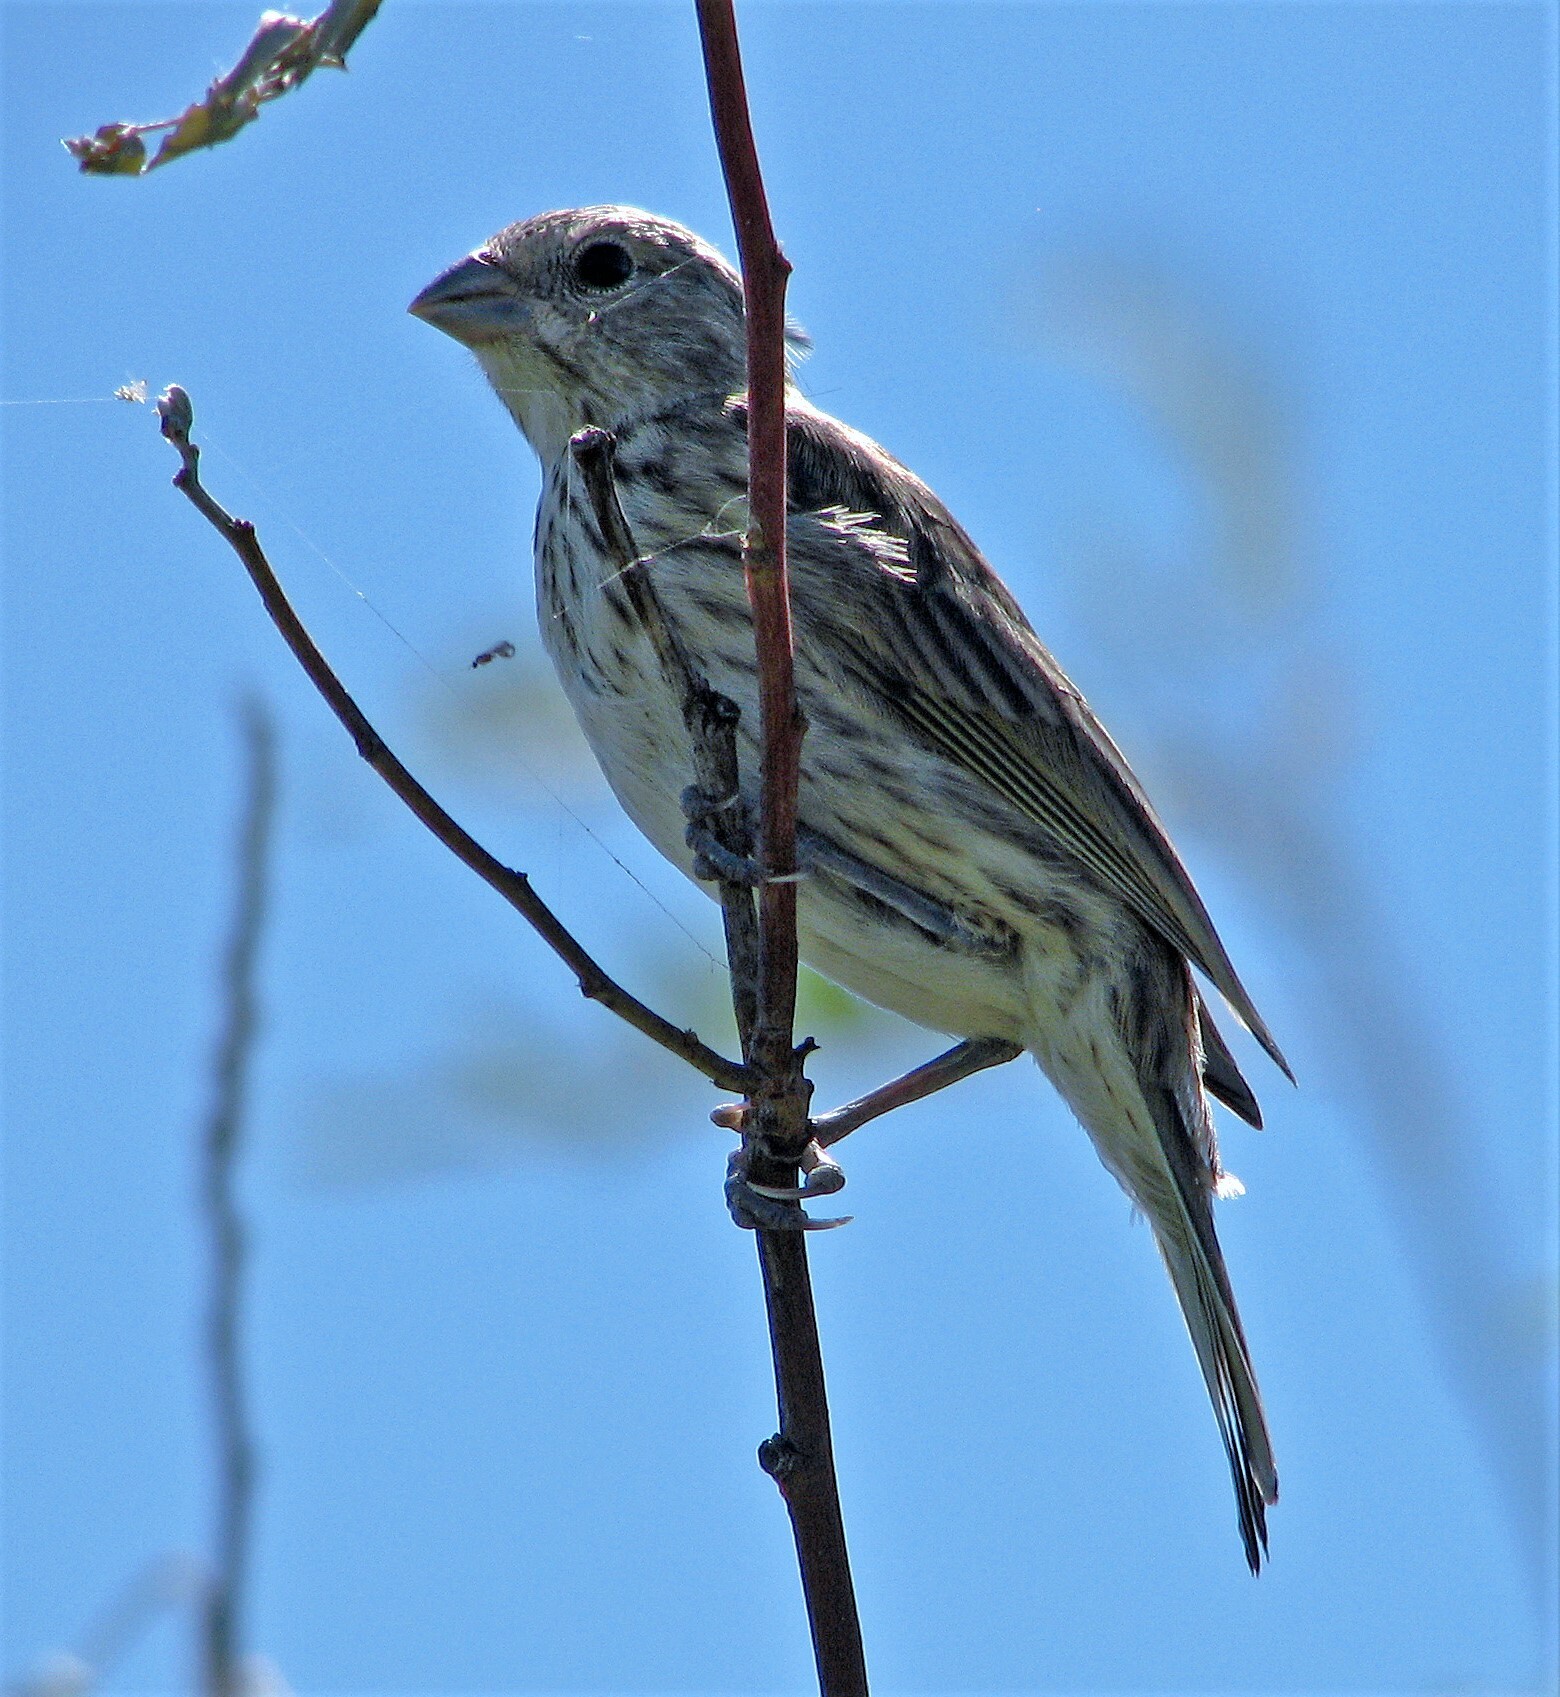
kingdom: Animalia
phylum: Chordata
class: Aves
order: Passeriformes
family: Thraupidae
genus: Sicalis
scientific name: Sicalis flaveola
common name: Saffron finch
